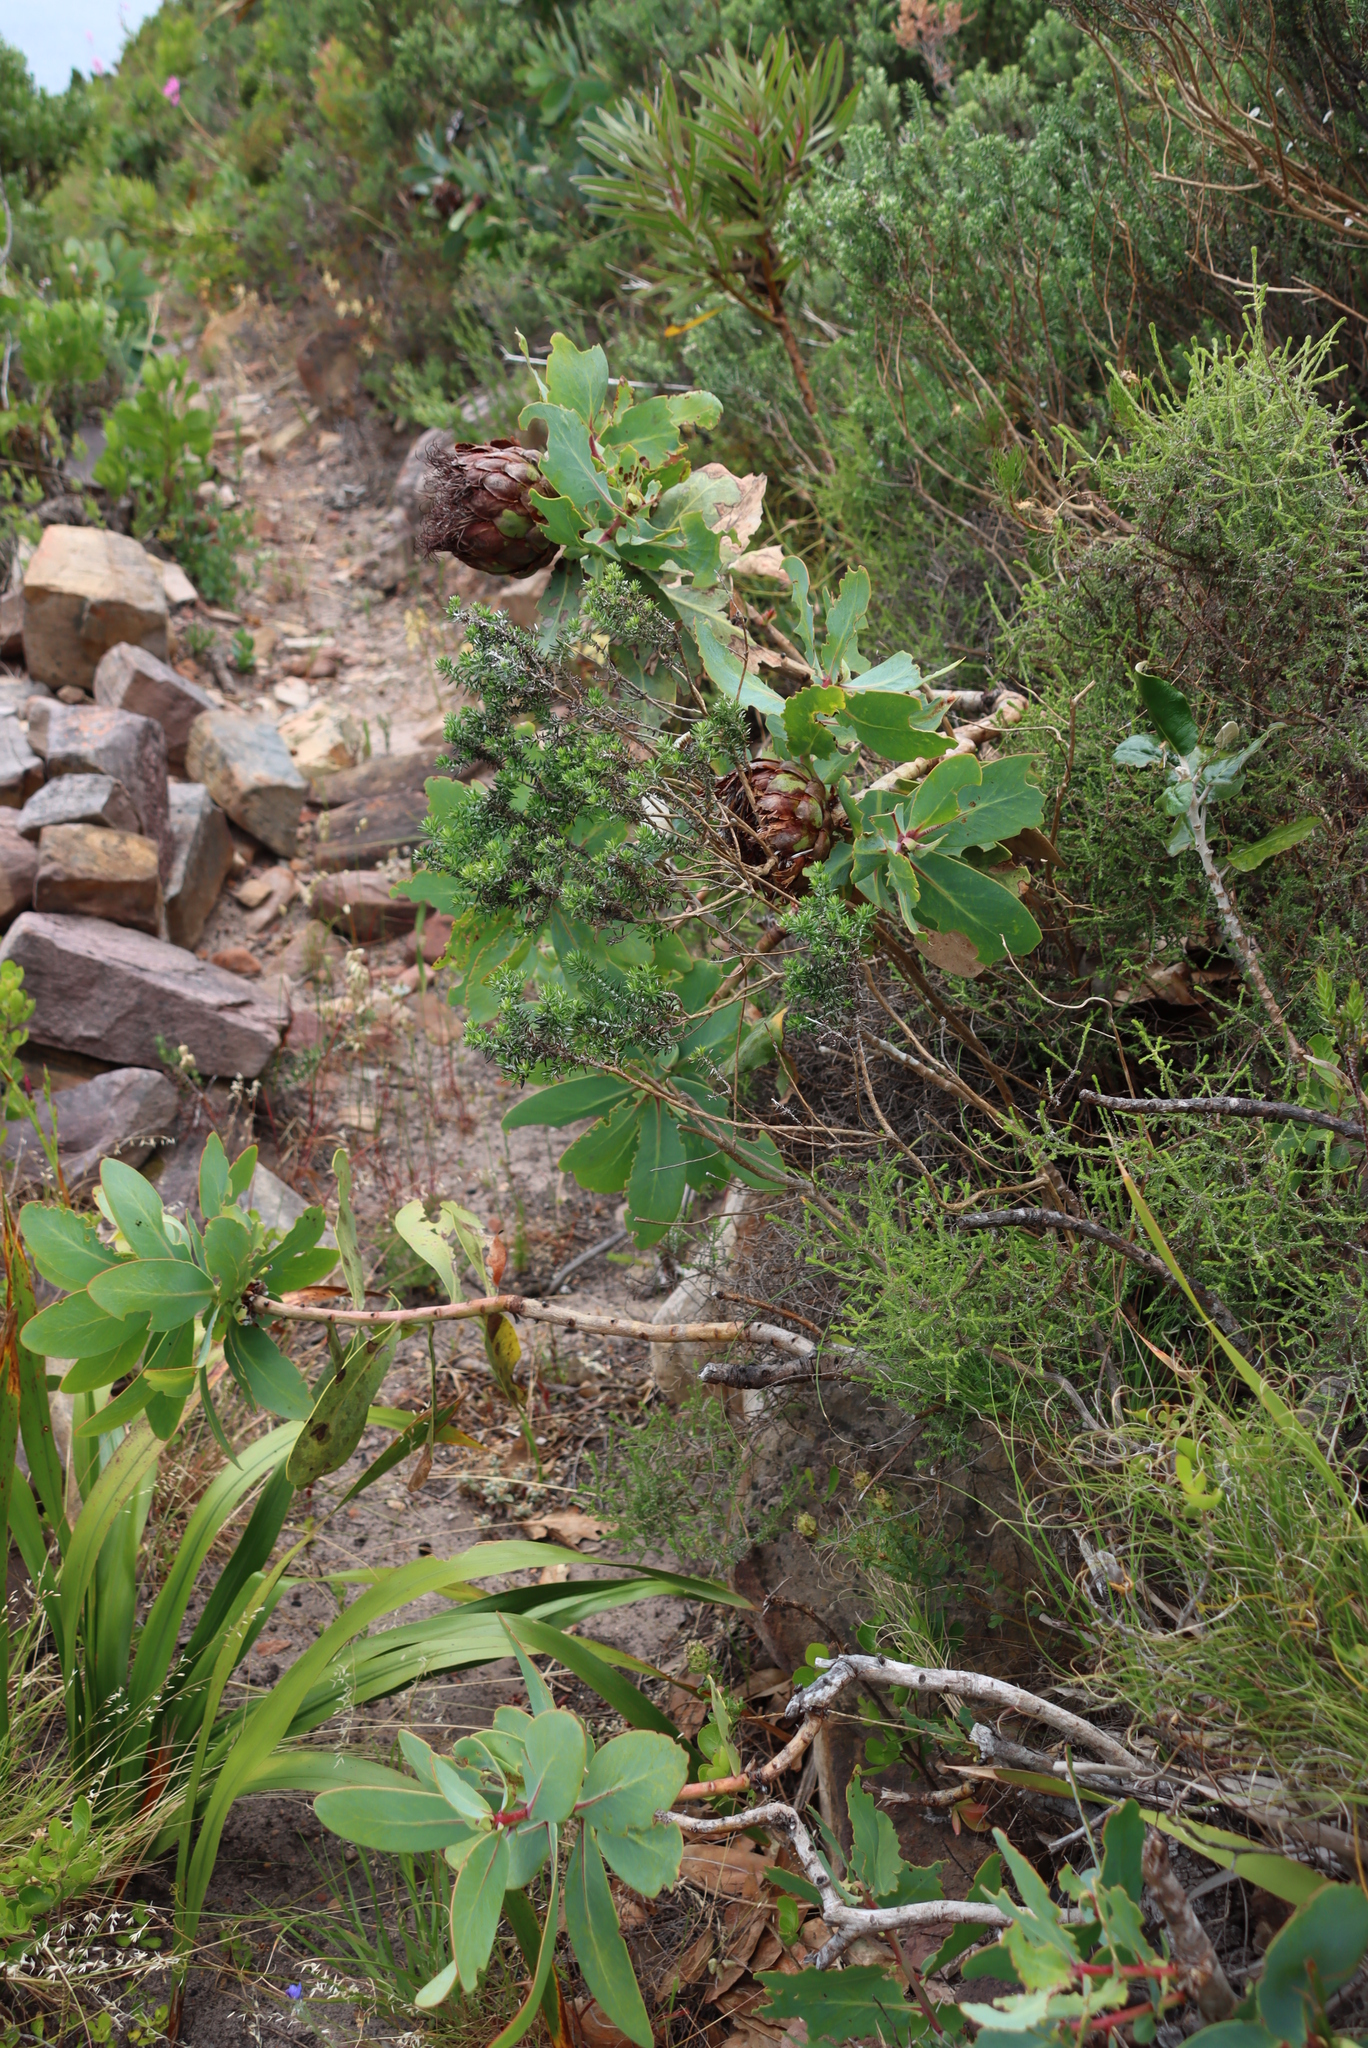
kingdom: Plantae
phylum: Tracheophyta
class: Magnoliopsida
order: Proteales
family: Proteaceae
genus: Protea
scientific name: Protea nitida
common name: Tree protea
